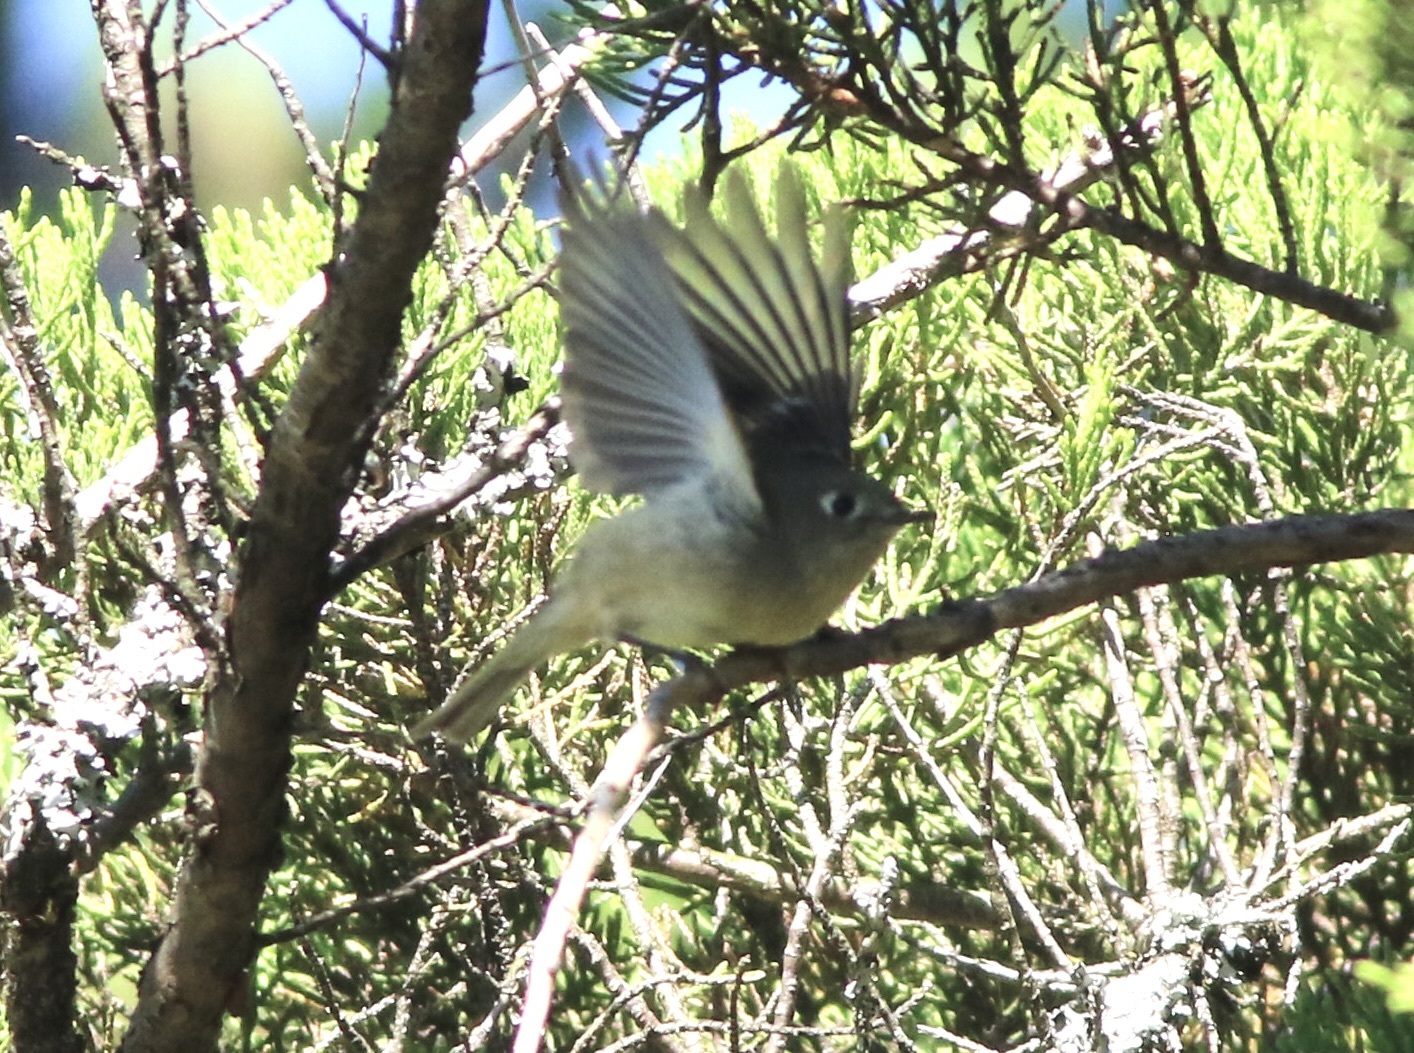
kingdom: Animalia
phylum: Chordata
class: Aves
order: Passeriformes
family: Regulidae
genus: Regulus
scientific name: Regulus calendula
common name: Ruby-crowned kinglet
